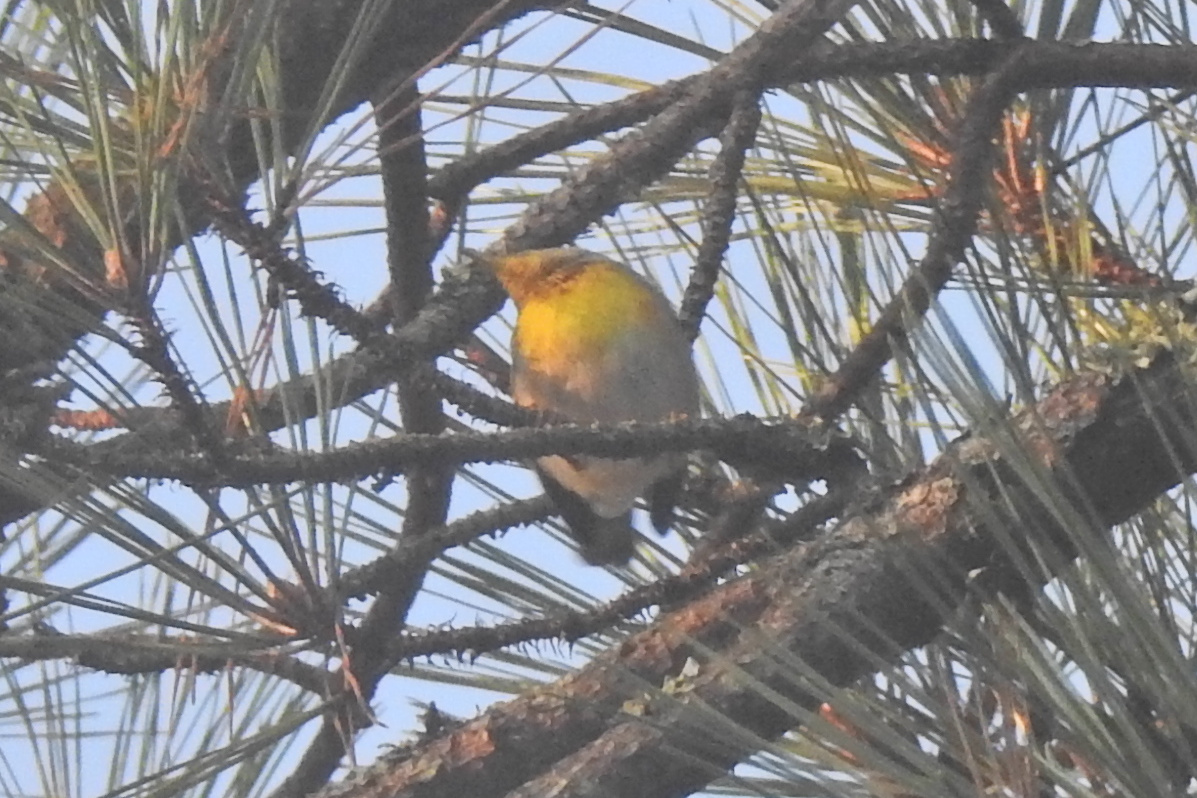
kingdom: Animalia
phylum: Chordata
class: Aves
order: Passeriformes
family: Parulidae
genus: Setophaga
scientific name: Setophaga americana
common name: Northern parula
